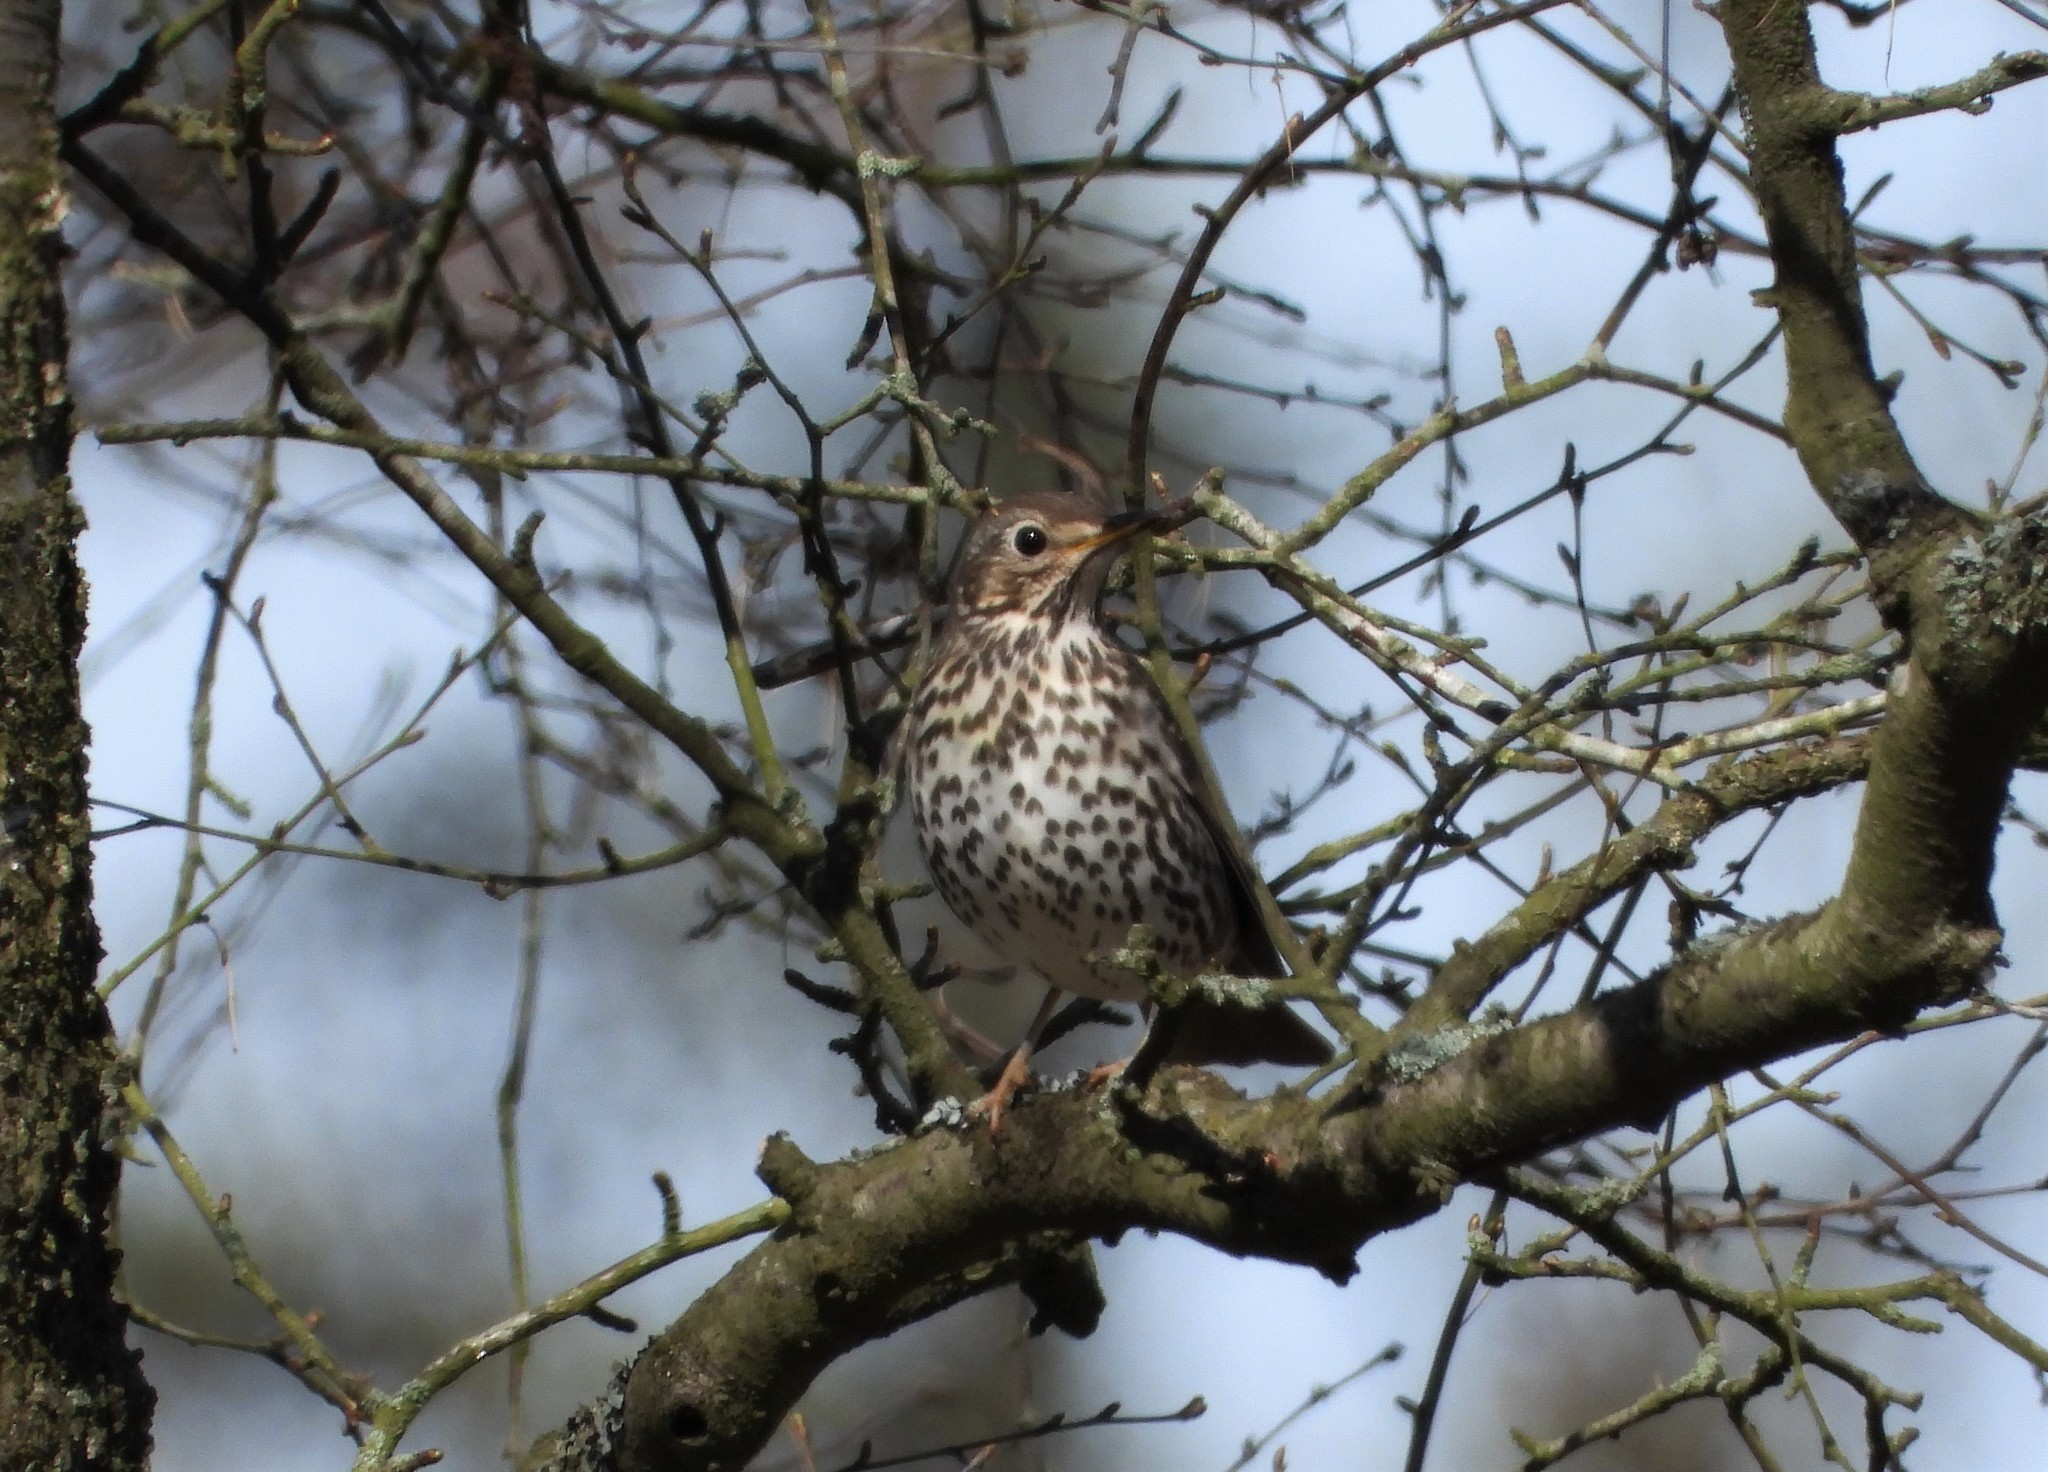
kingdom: Animalia
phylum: Chordata
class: Aves
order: Passeriformes
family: Turdidae
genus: Turdus
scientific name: Turdus philomelos
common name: Song thrush
